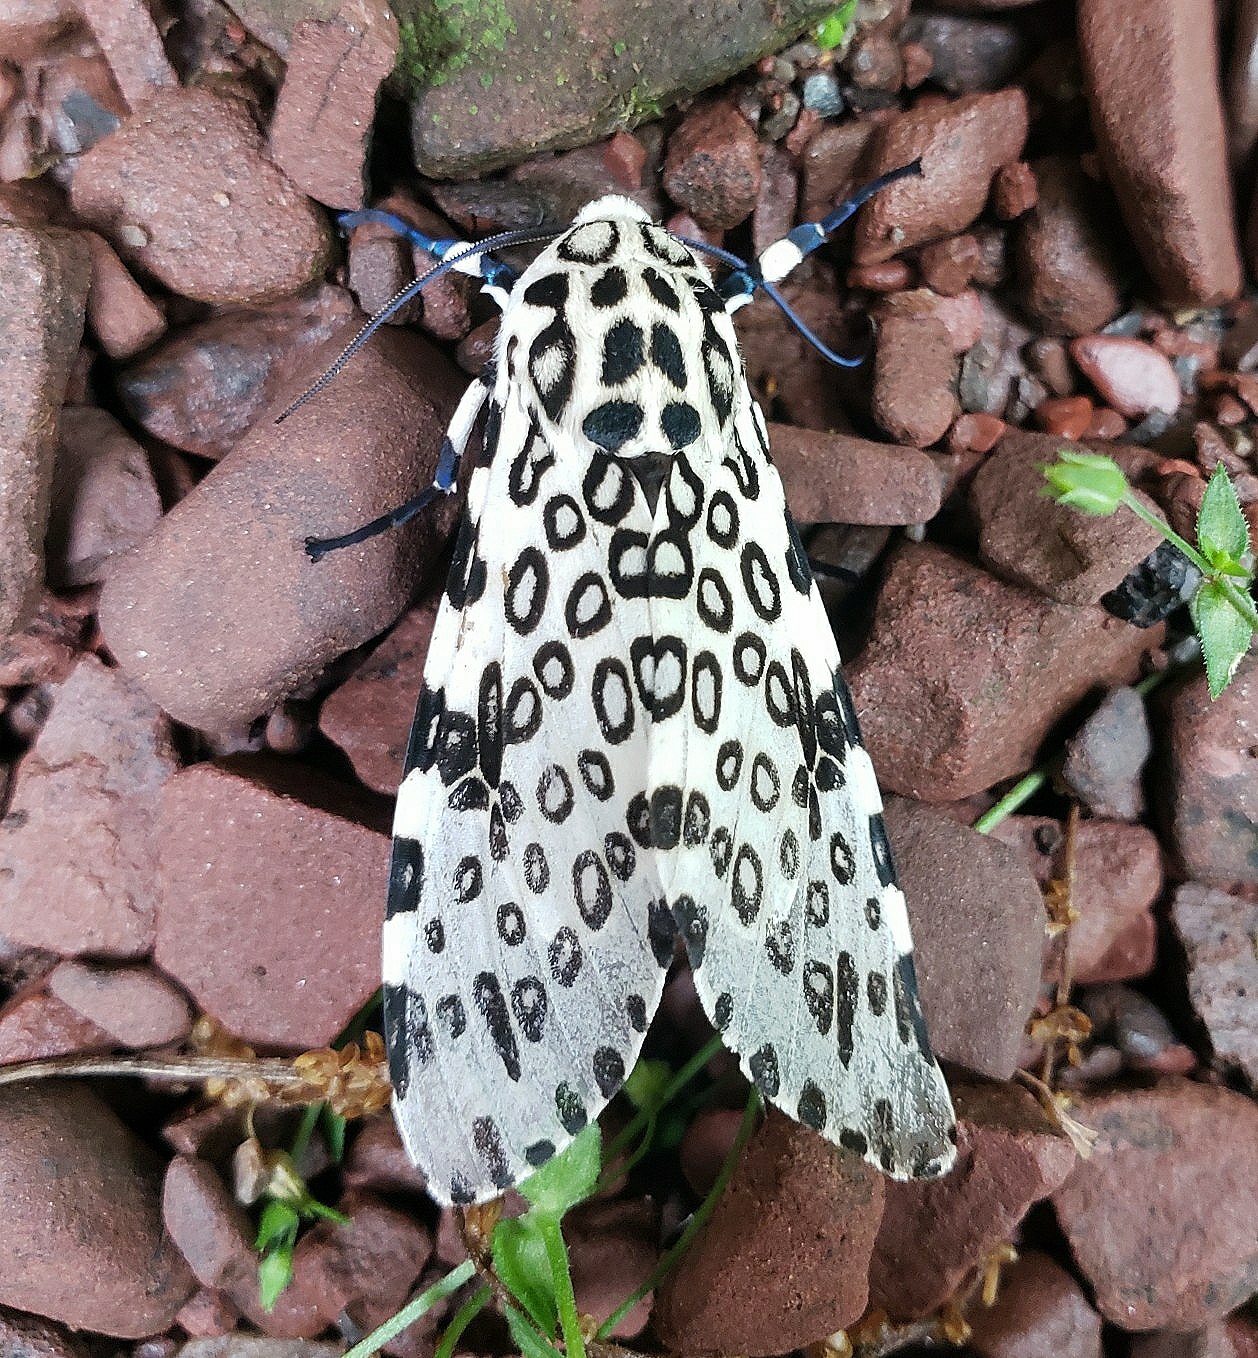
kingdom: Animalia
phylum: Arthropoda
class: Insecta
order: Lepidoptera
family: Erebidae
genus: Hypercompe
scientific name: Hypercompe scribonia
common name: Giant leopard moth
